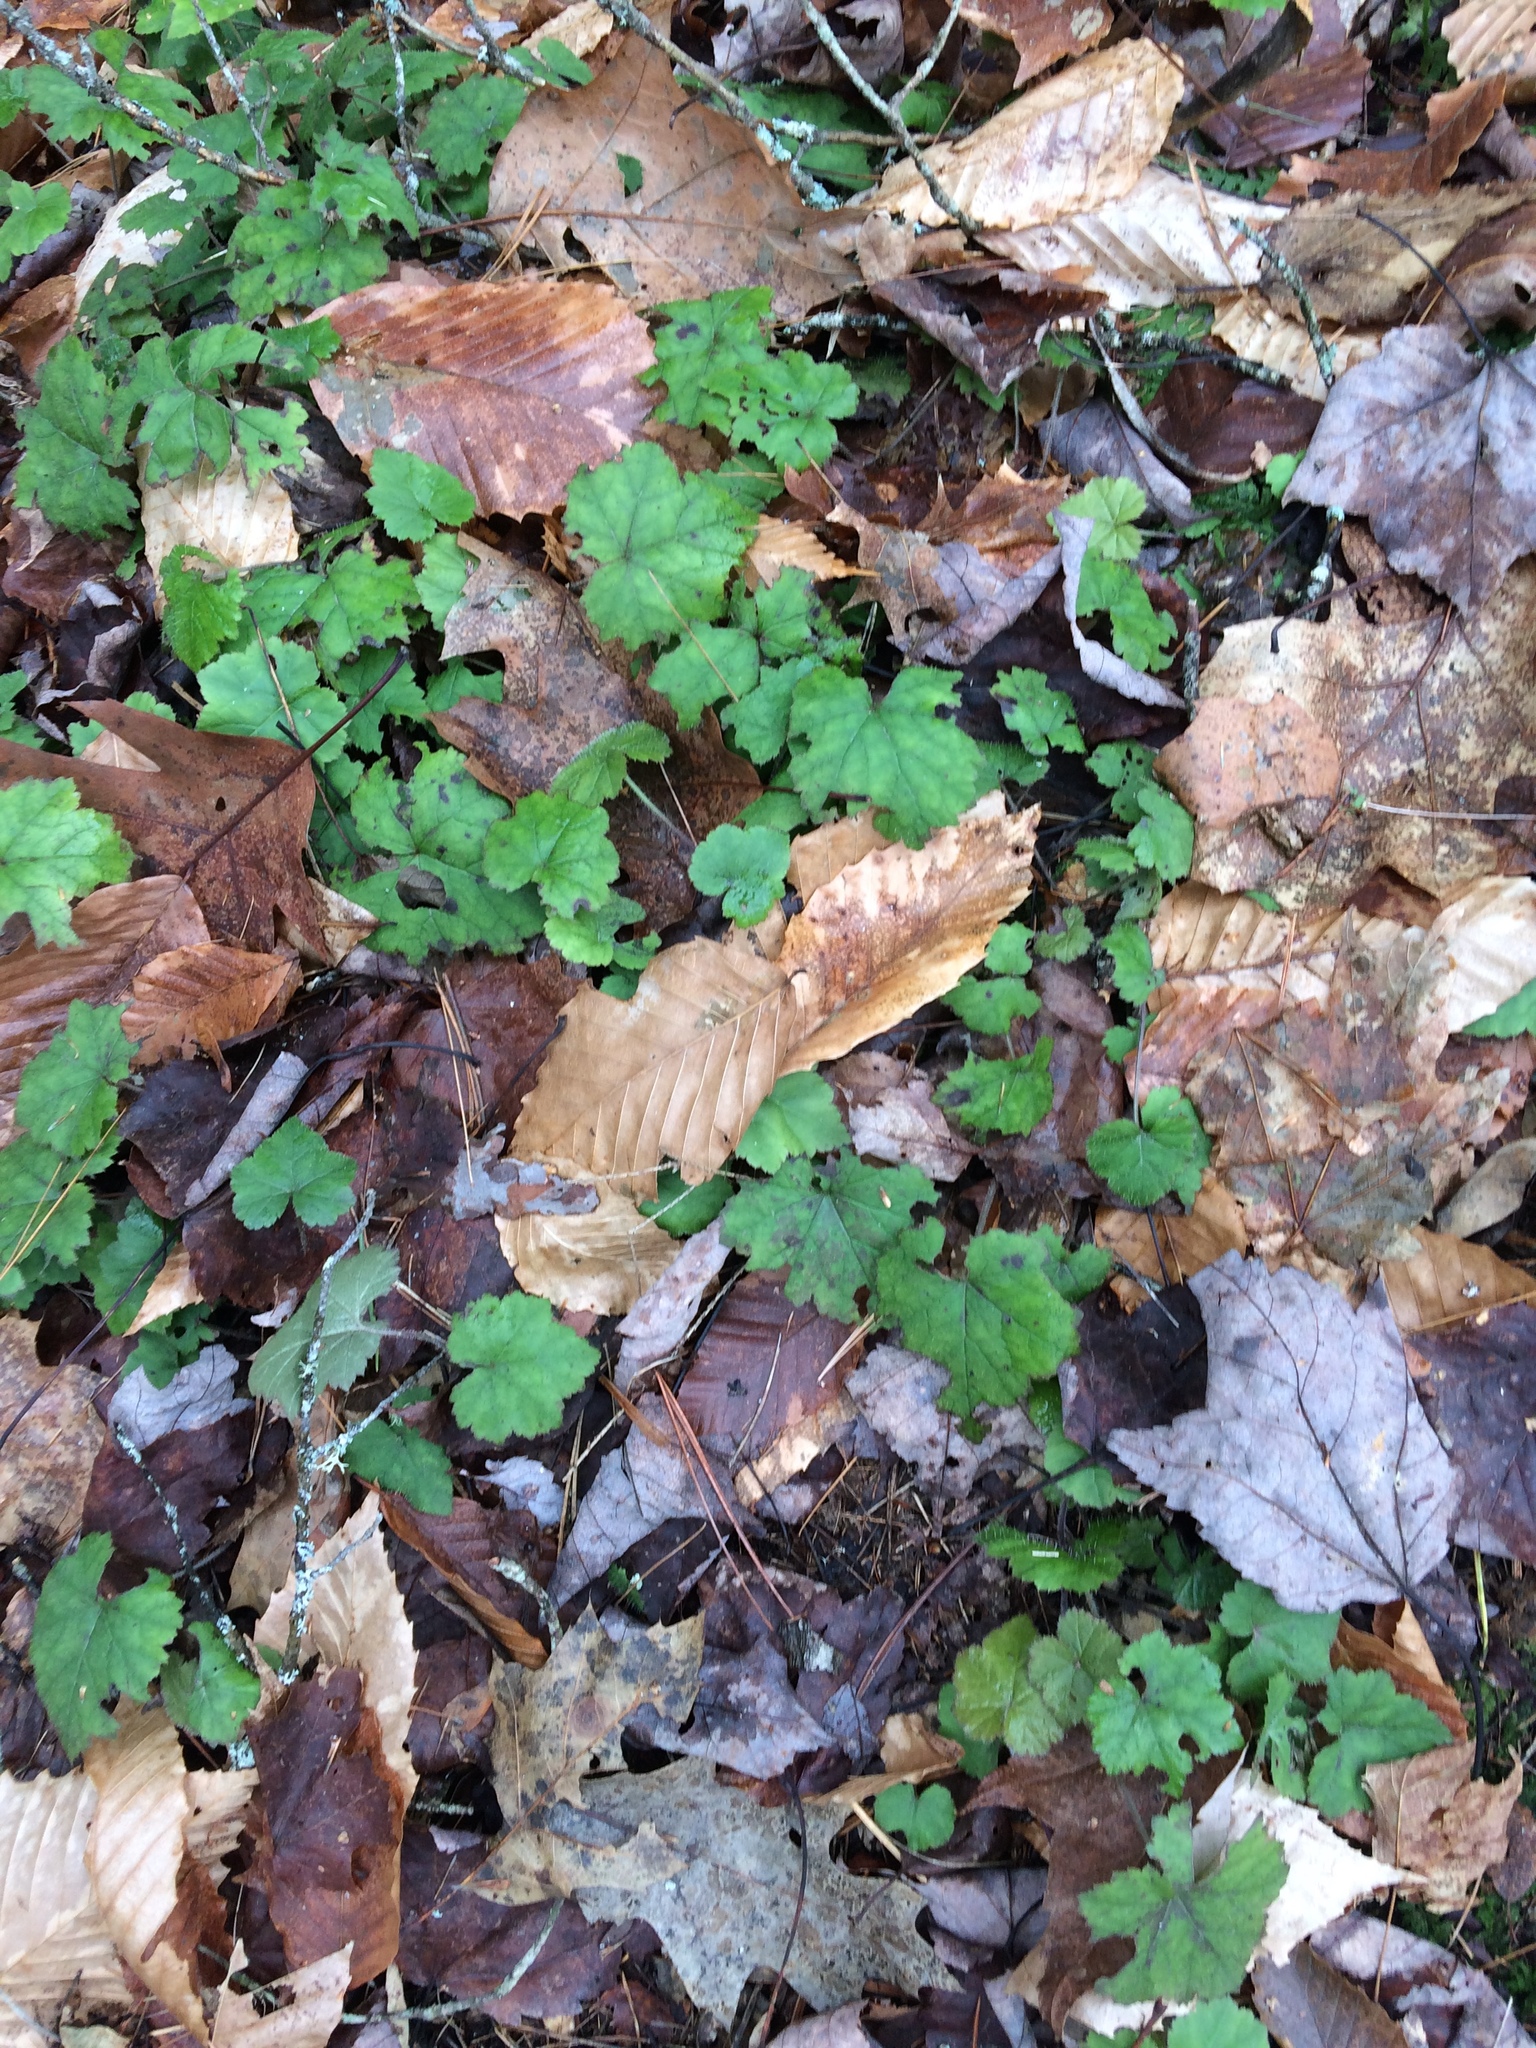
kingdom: Plantae
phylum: Tracheophyta
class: Magnoliopsida
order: Saxifragales
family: Saxifragaceae
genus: Tiarella
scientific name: Tiarella stolonifera
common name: Stoloniferous foamflower
